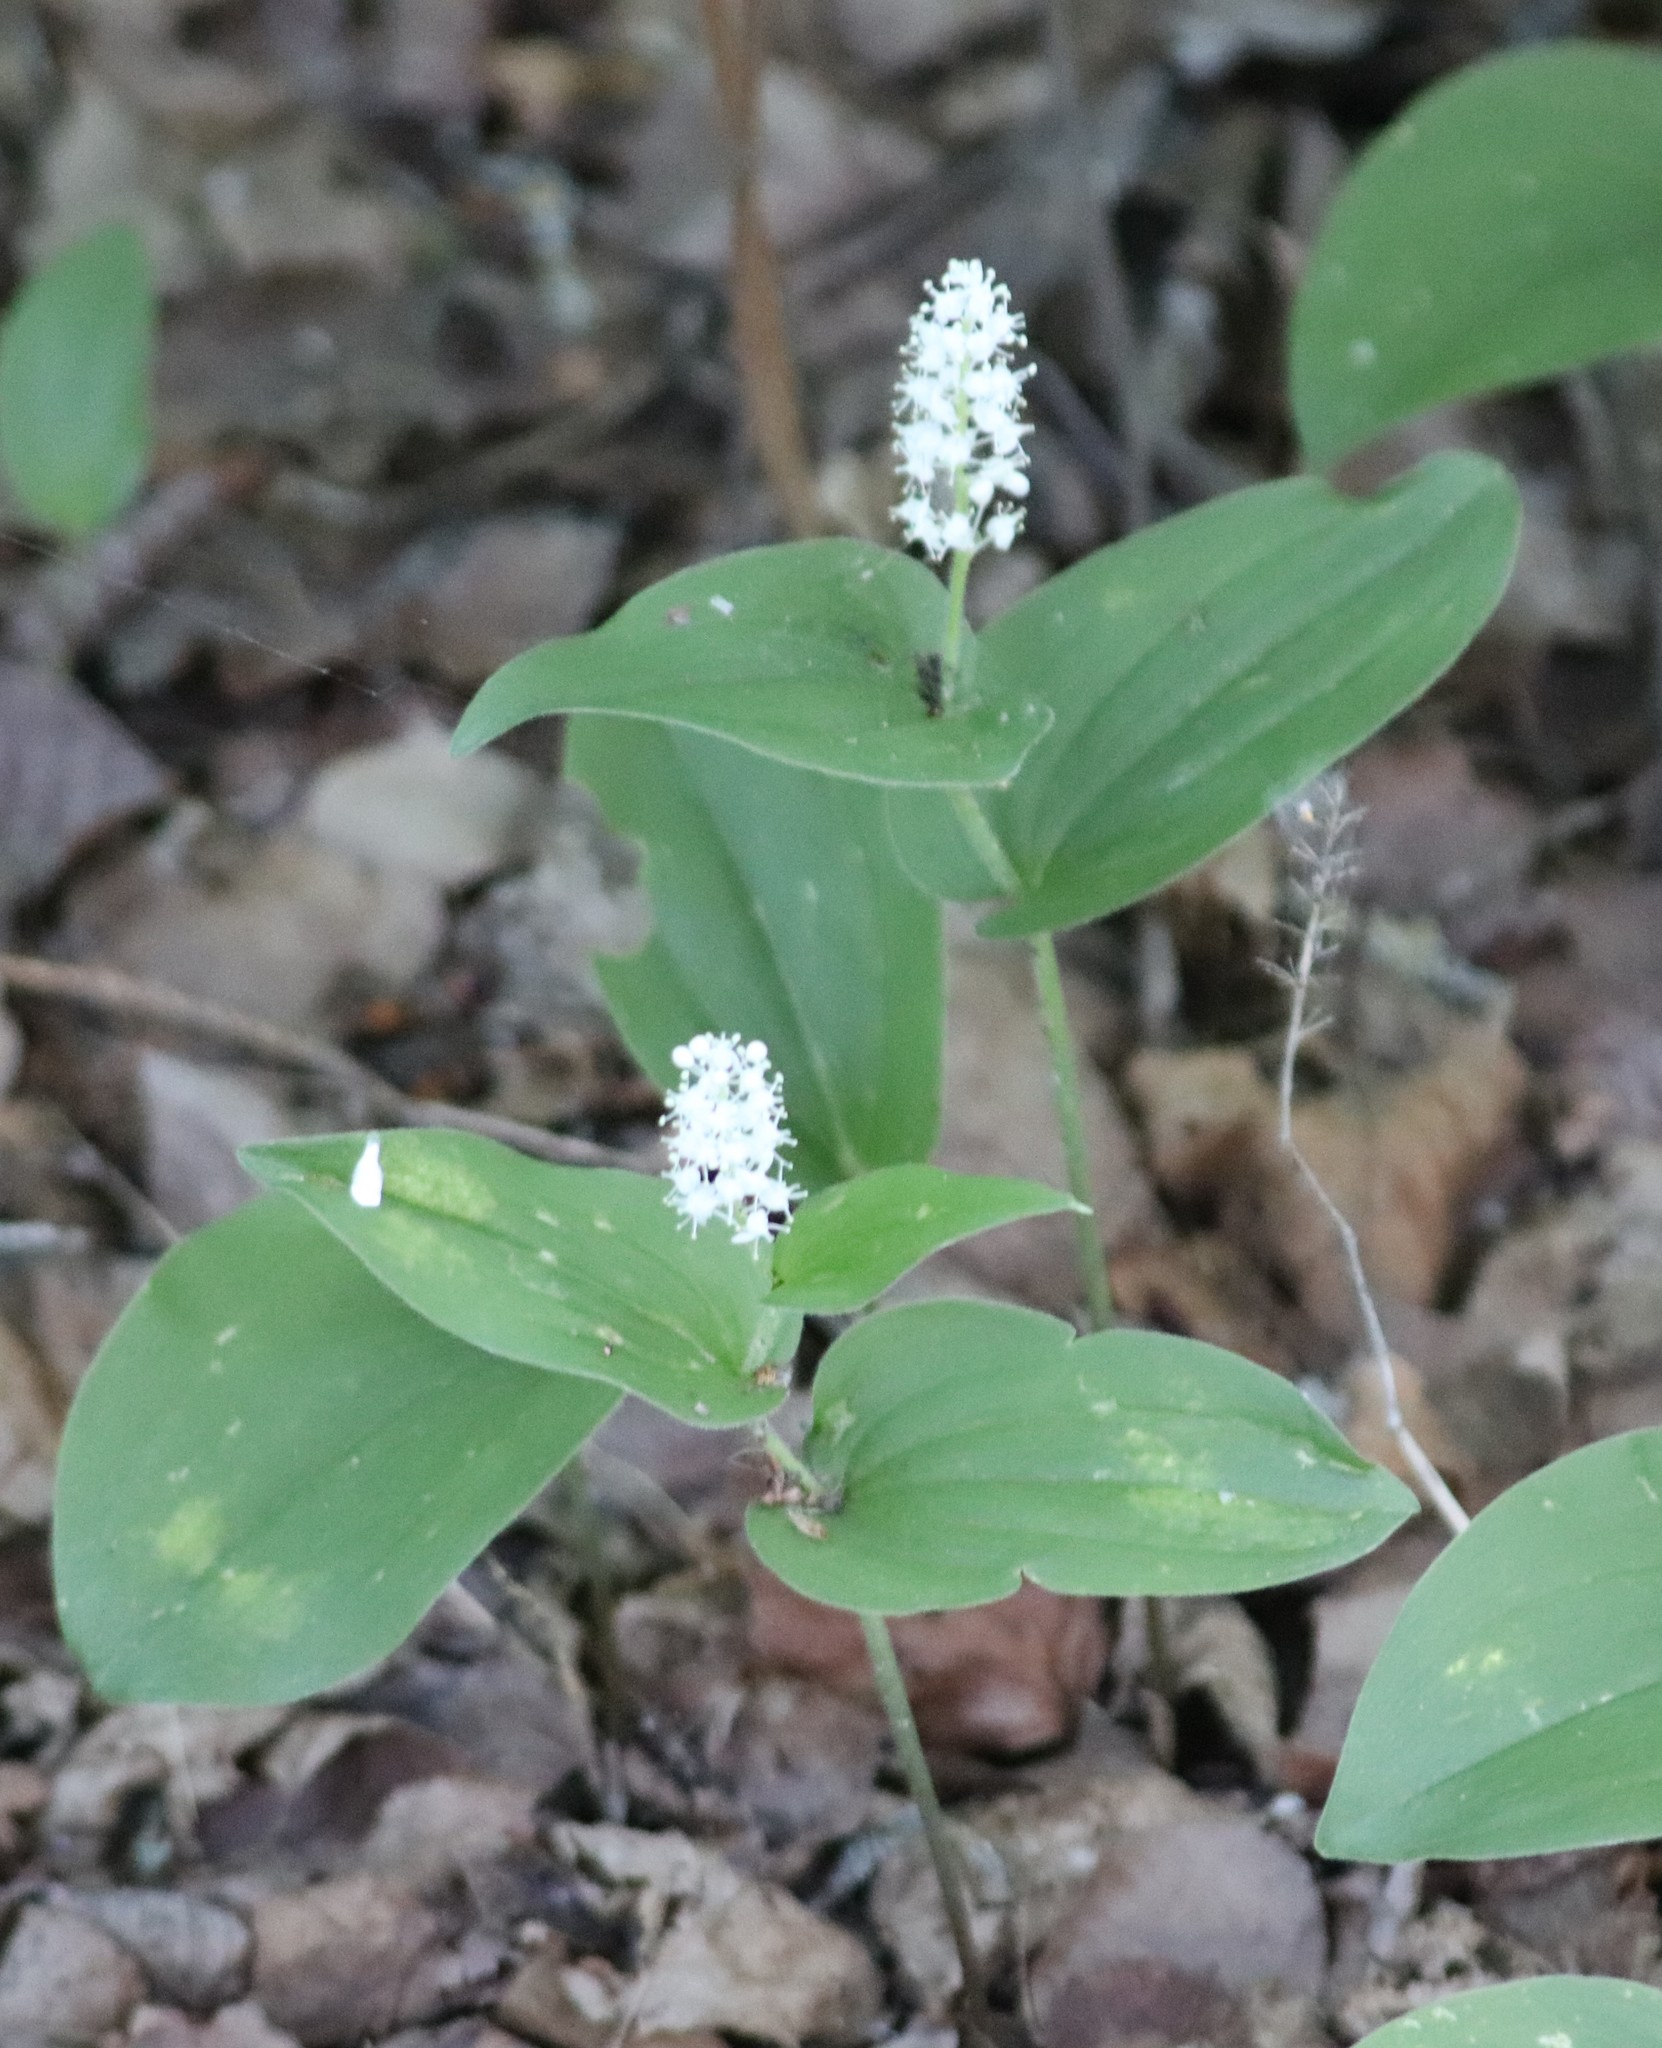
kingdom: Plantae
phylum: Tracheophyta
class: Liliopsida
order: Asparagales
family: Asparagaceae
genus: Maianthemum
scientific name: Maianthemum canadense
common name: False lily-of-the-valley
